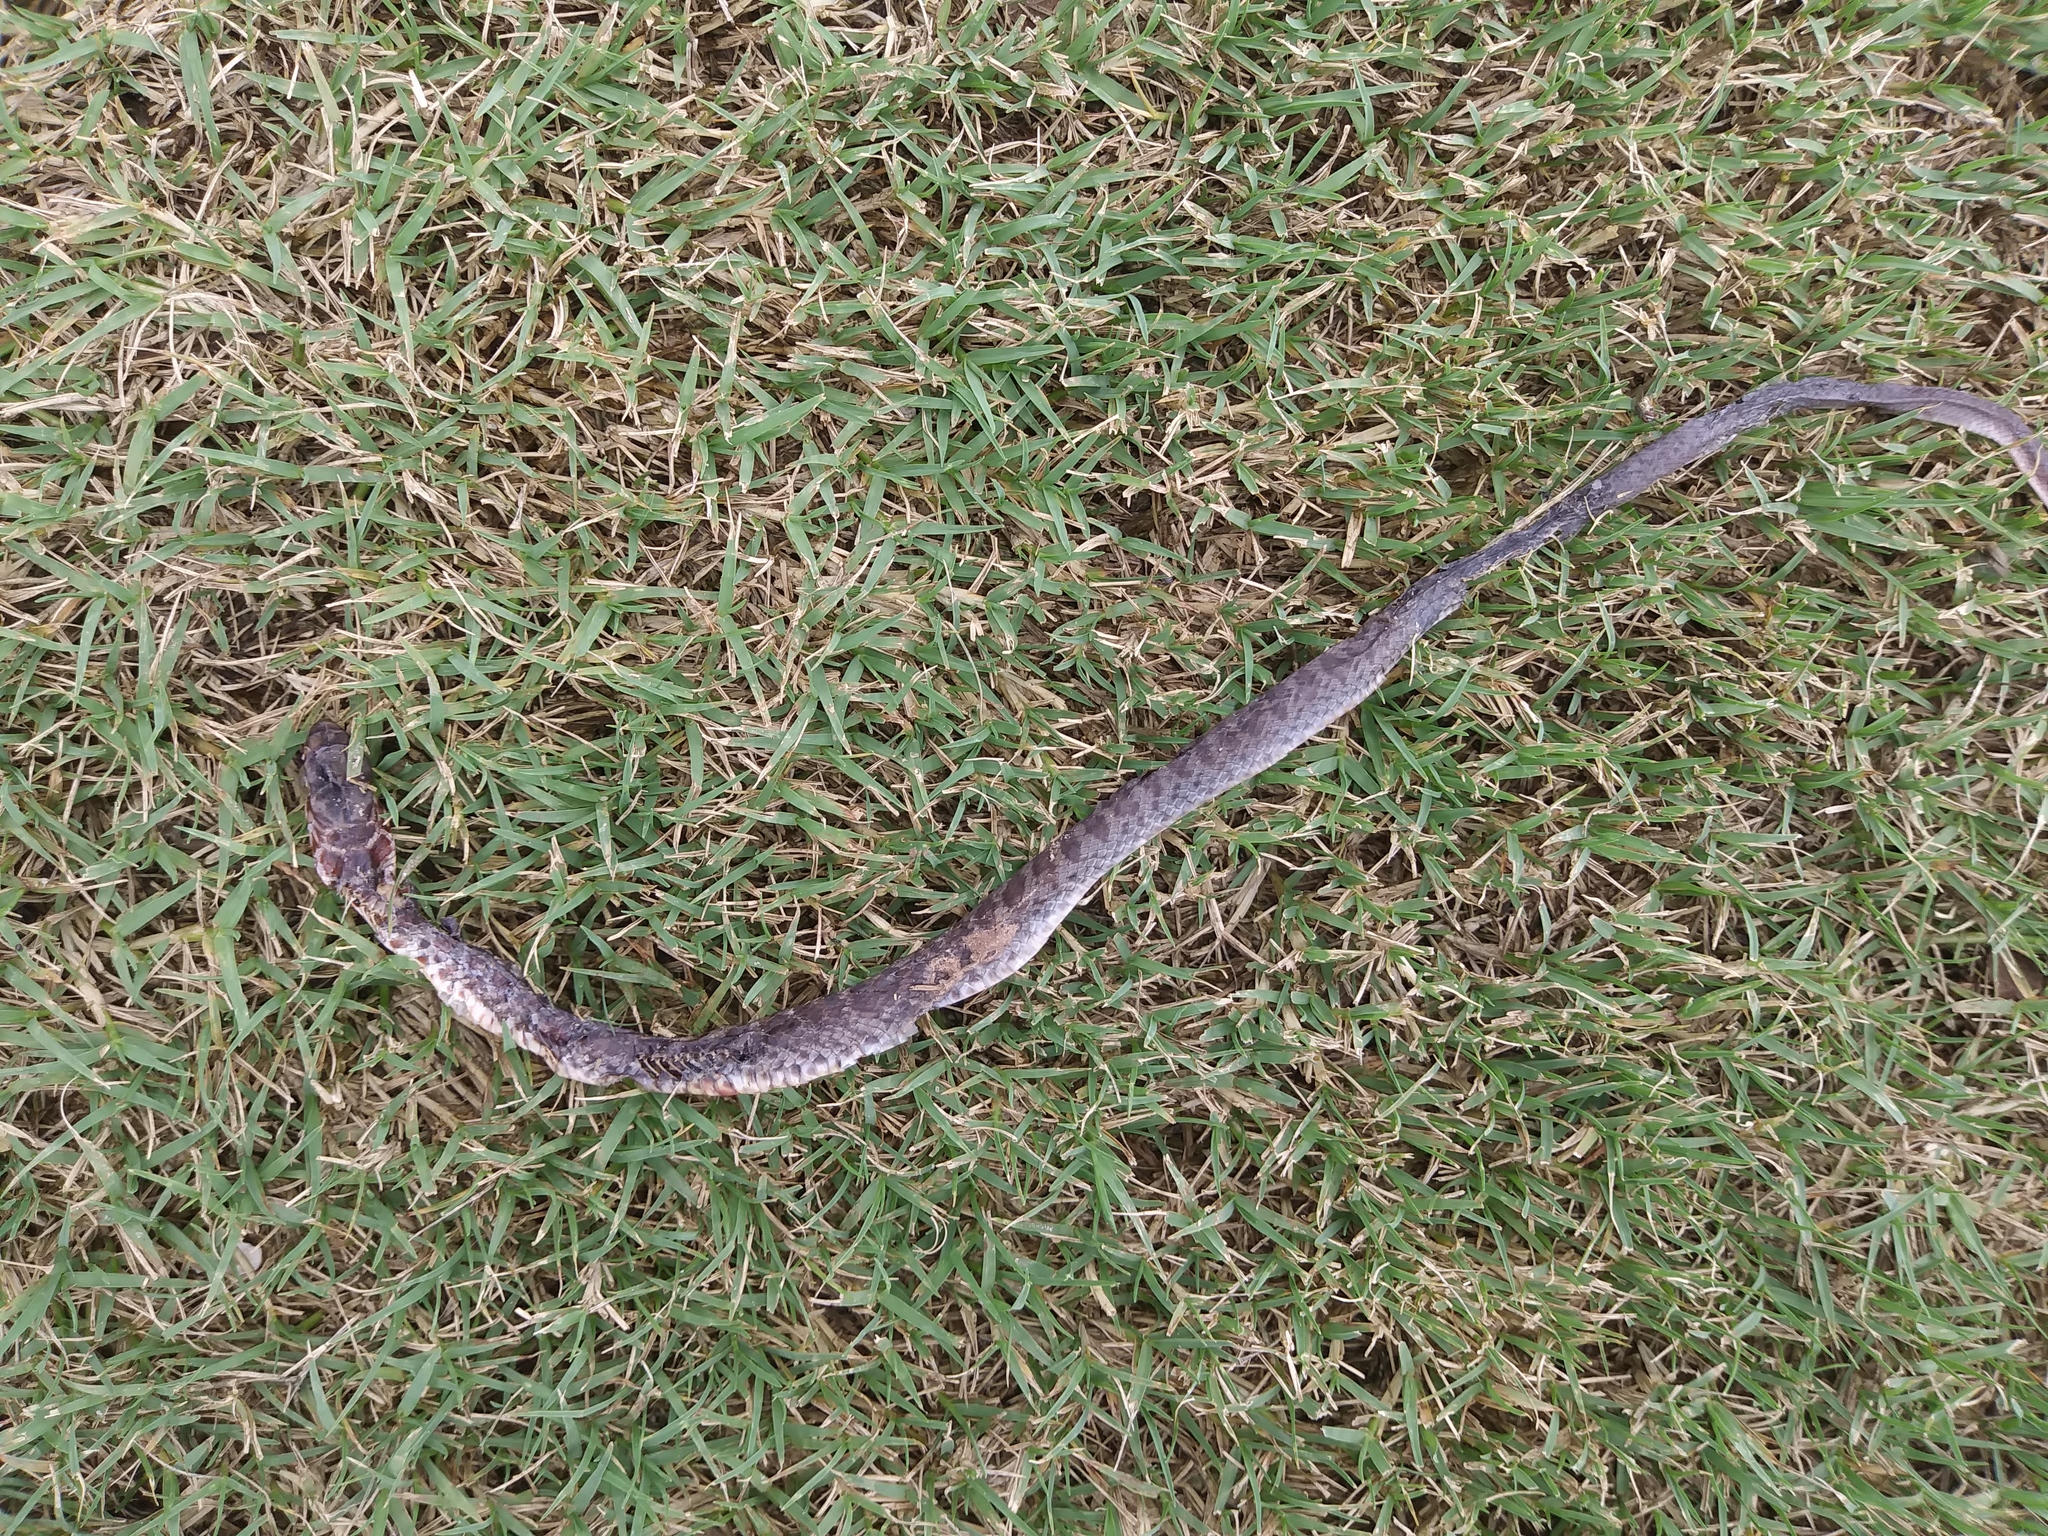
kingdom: Animalia
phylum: Chordata
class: Squamata
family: Colubridae
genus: Coluber
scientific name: Coluber constrictor
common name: Eastern racer
